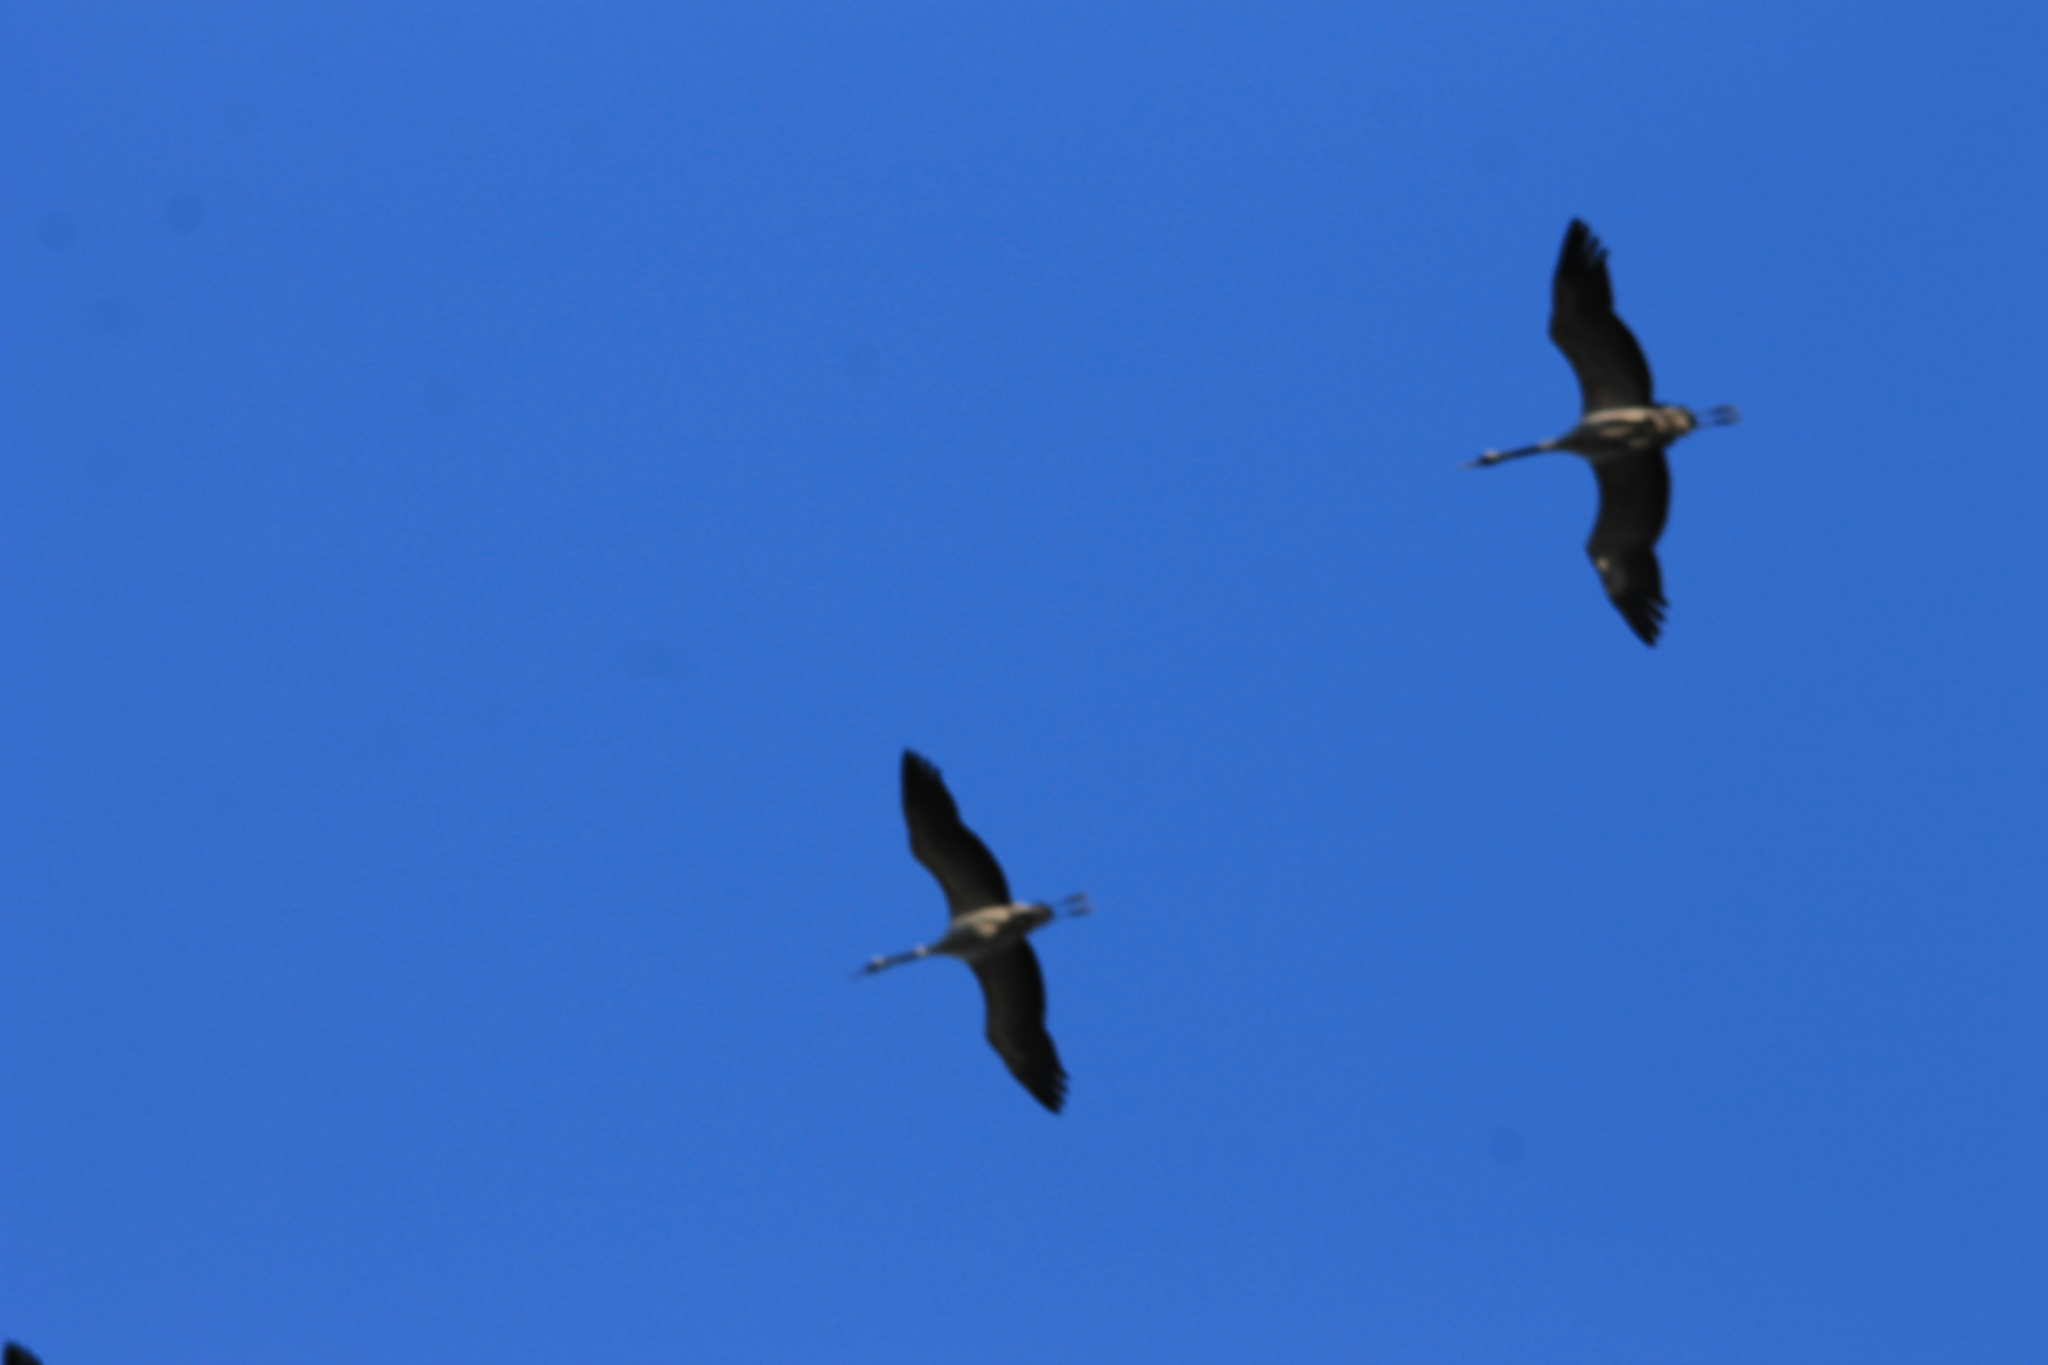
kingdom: Animalia
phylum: Chordata
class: Aves
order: Gruiformes
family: Gruidae
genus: Grus
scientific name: Grus grus
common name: Common crane
